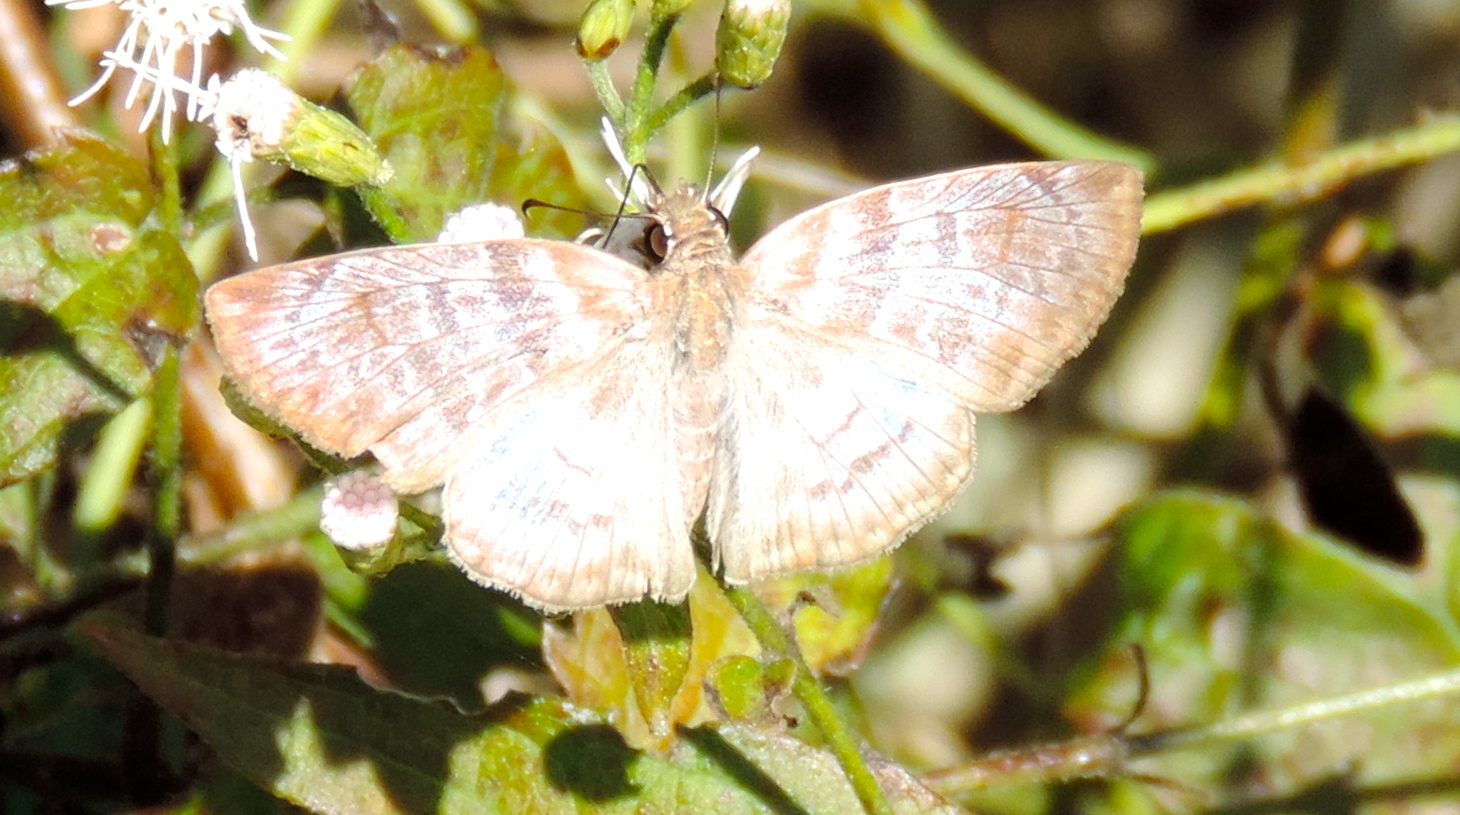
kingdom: Animalia
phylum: Arthropoda
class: Insecta
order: Lepidoptera
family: Hesperiidae
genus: Mylon
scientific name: Mylon pelopidas
